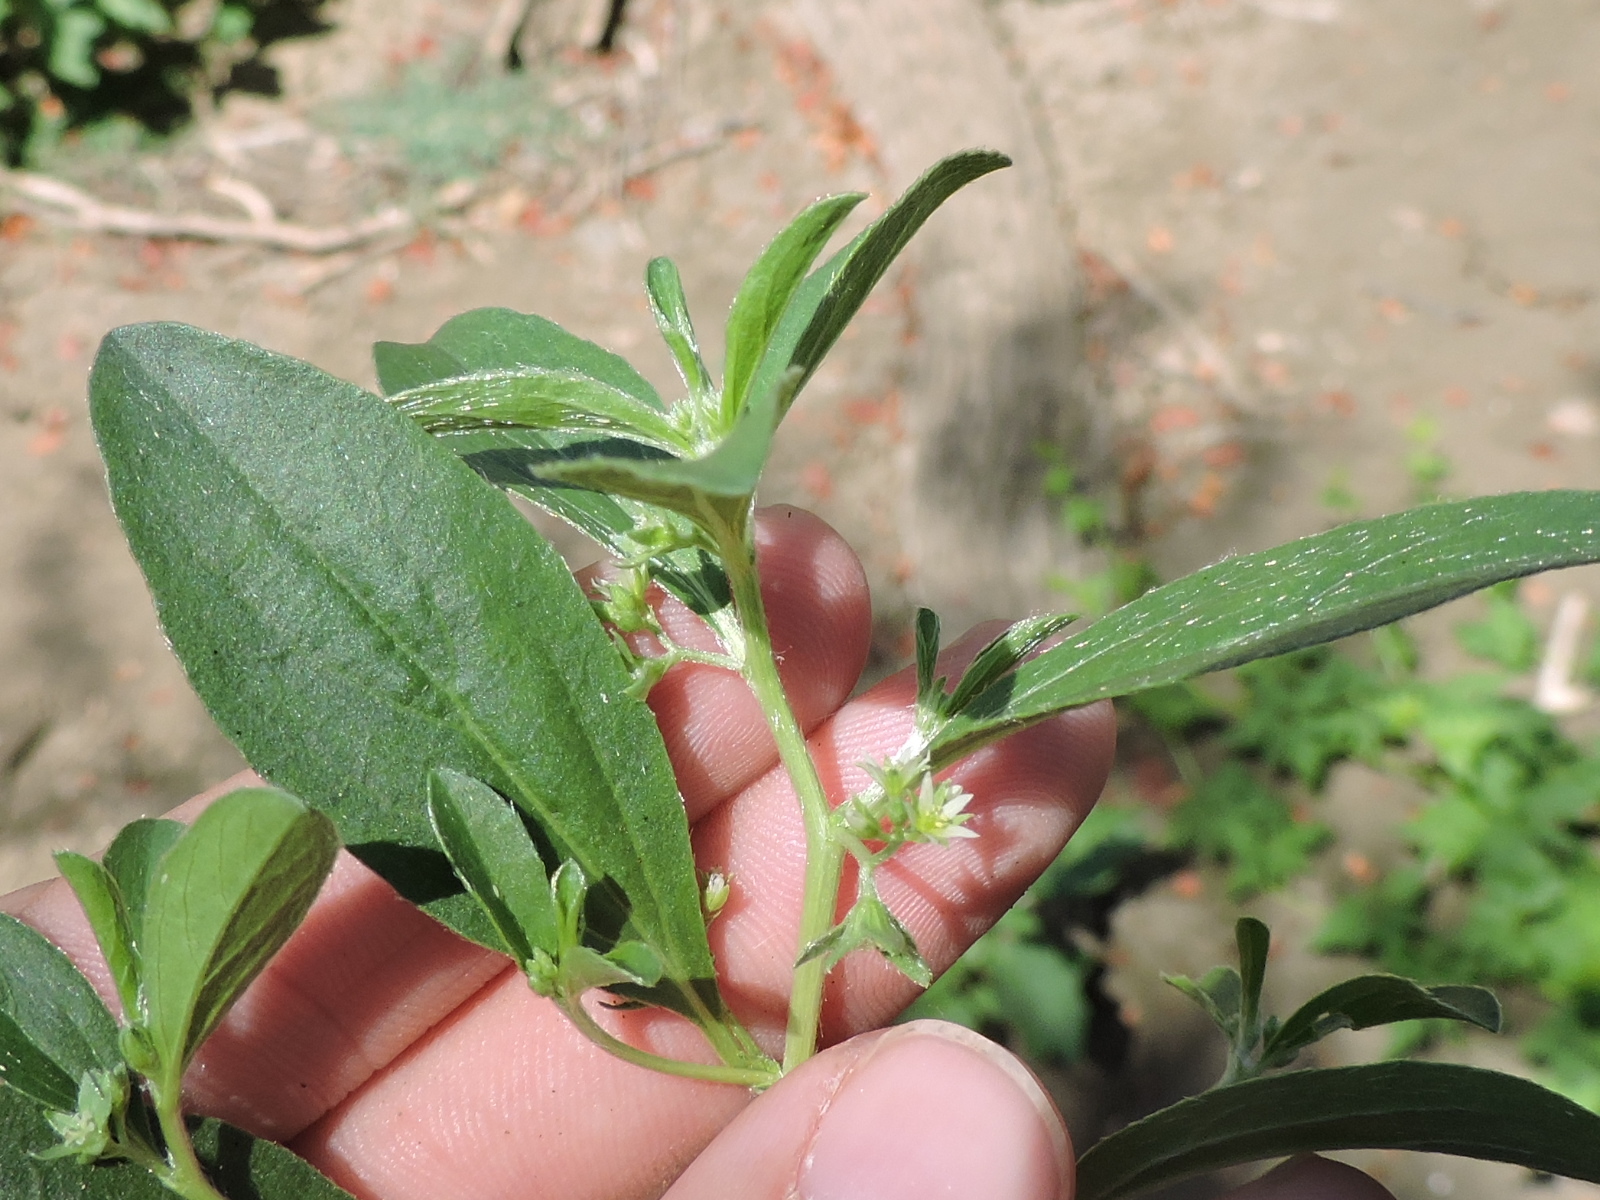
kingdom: Plantae
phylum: Tracheophyta
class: Magnoliopsida
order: Malpighiales
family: Euphorbiaceae
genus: Ditaxis
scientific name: Ditaxis humilis
